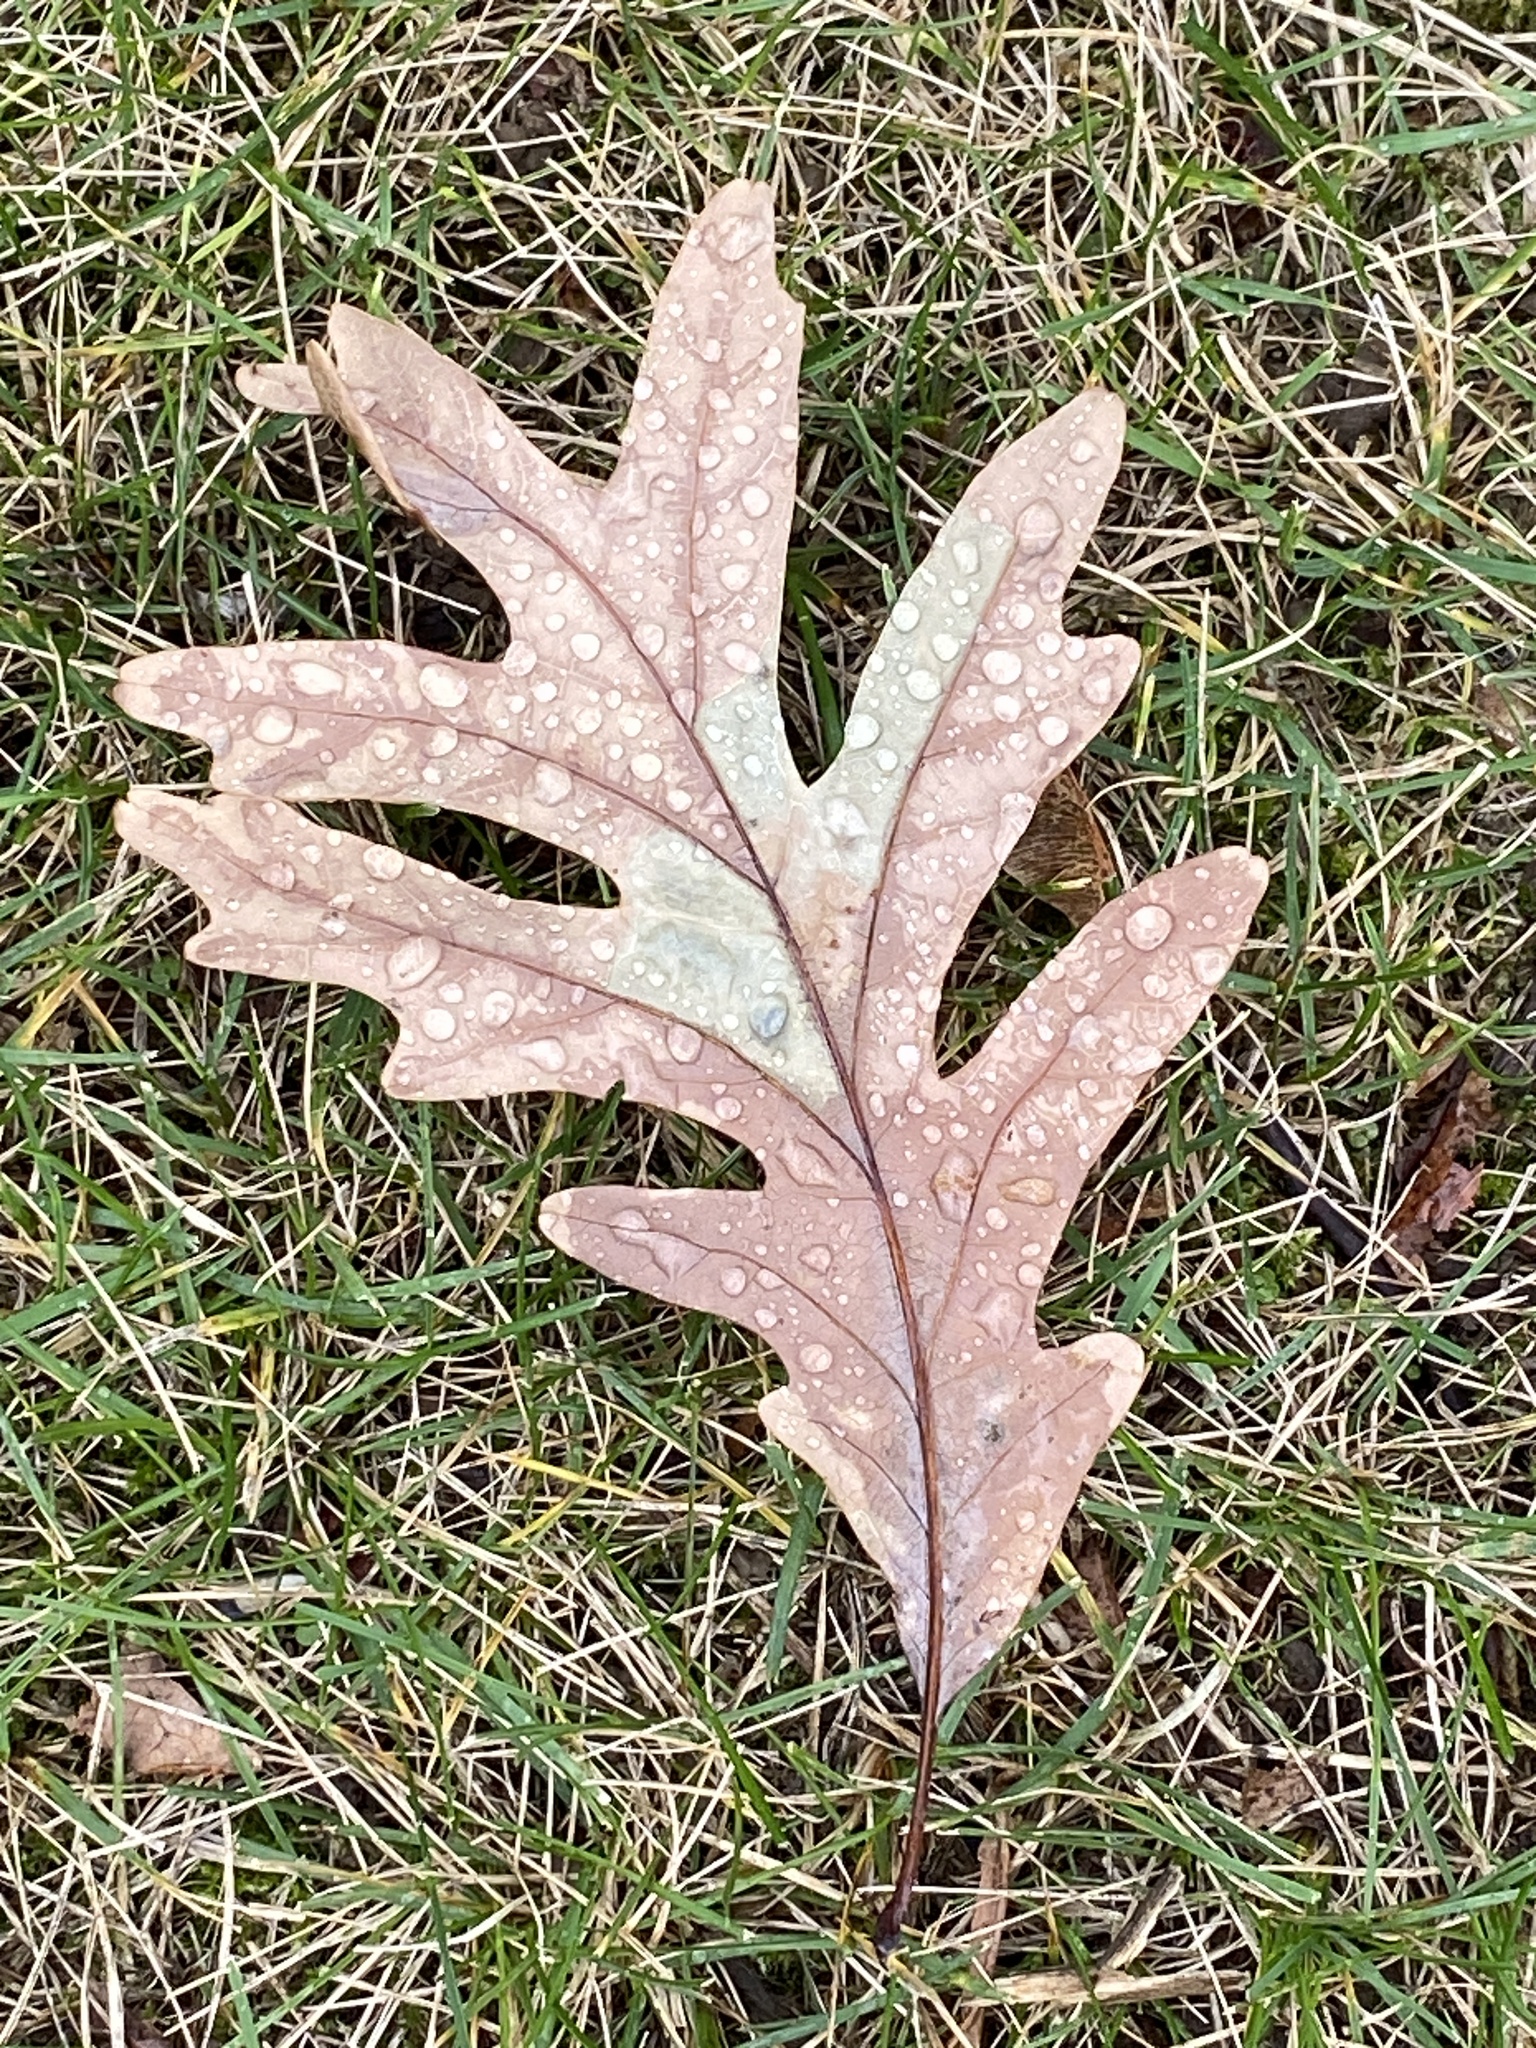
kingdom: Plantae
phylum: Tracheophyta
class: Magnoliopsida
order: Fagales
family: Fagaceae
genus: Quercus
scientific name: Quercus alba
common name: White oak
